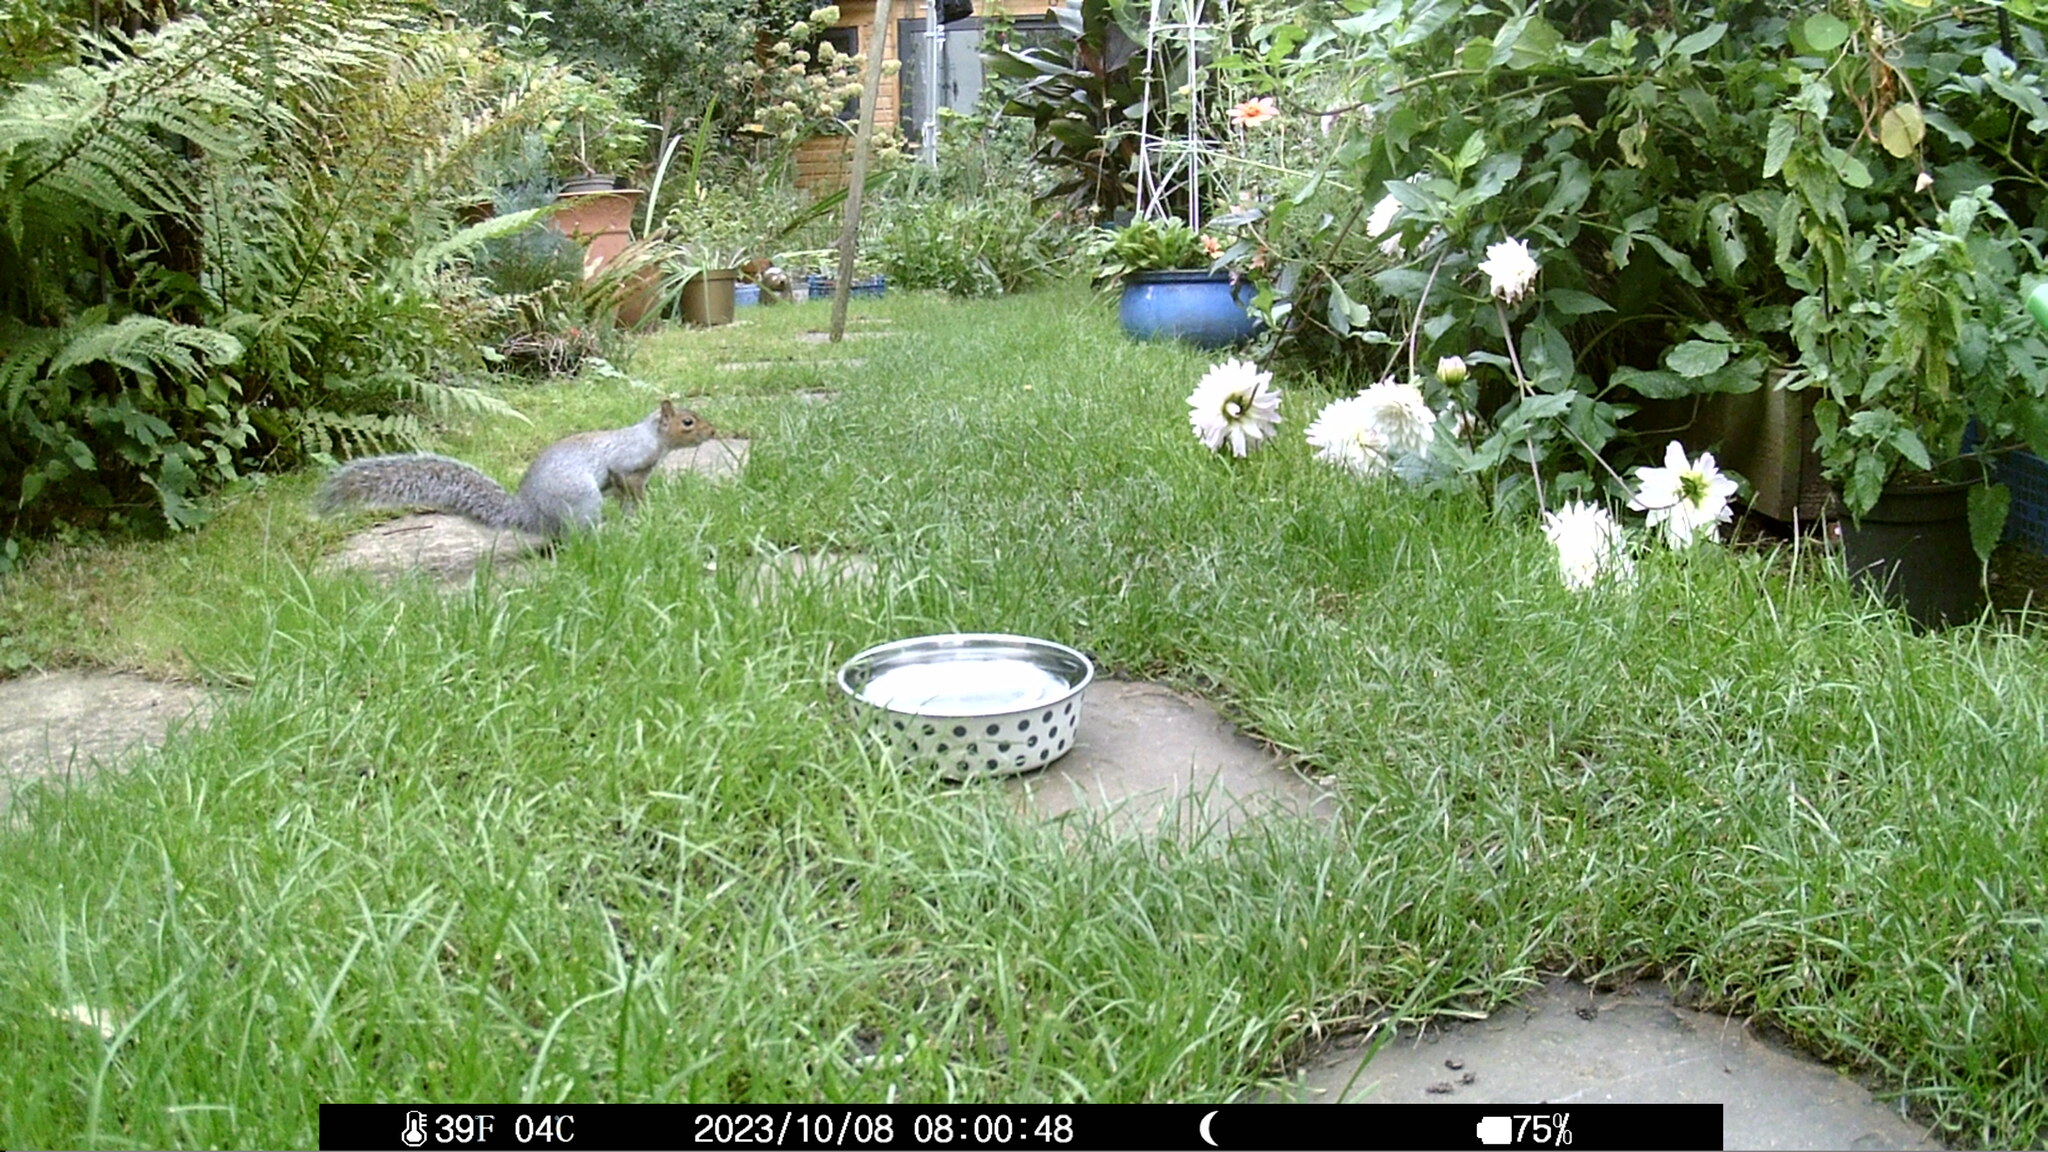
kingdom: Animalia
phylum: Chordata
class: Mammalia
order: Rodentia
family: Sciuridae
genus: Sciurus
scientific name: Sciurus carolinensis
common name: Eastern gray squirrel
